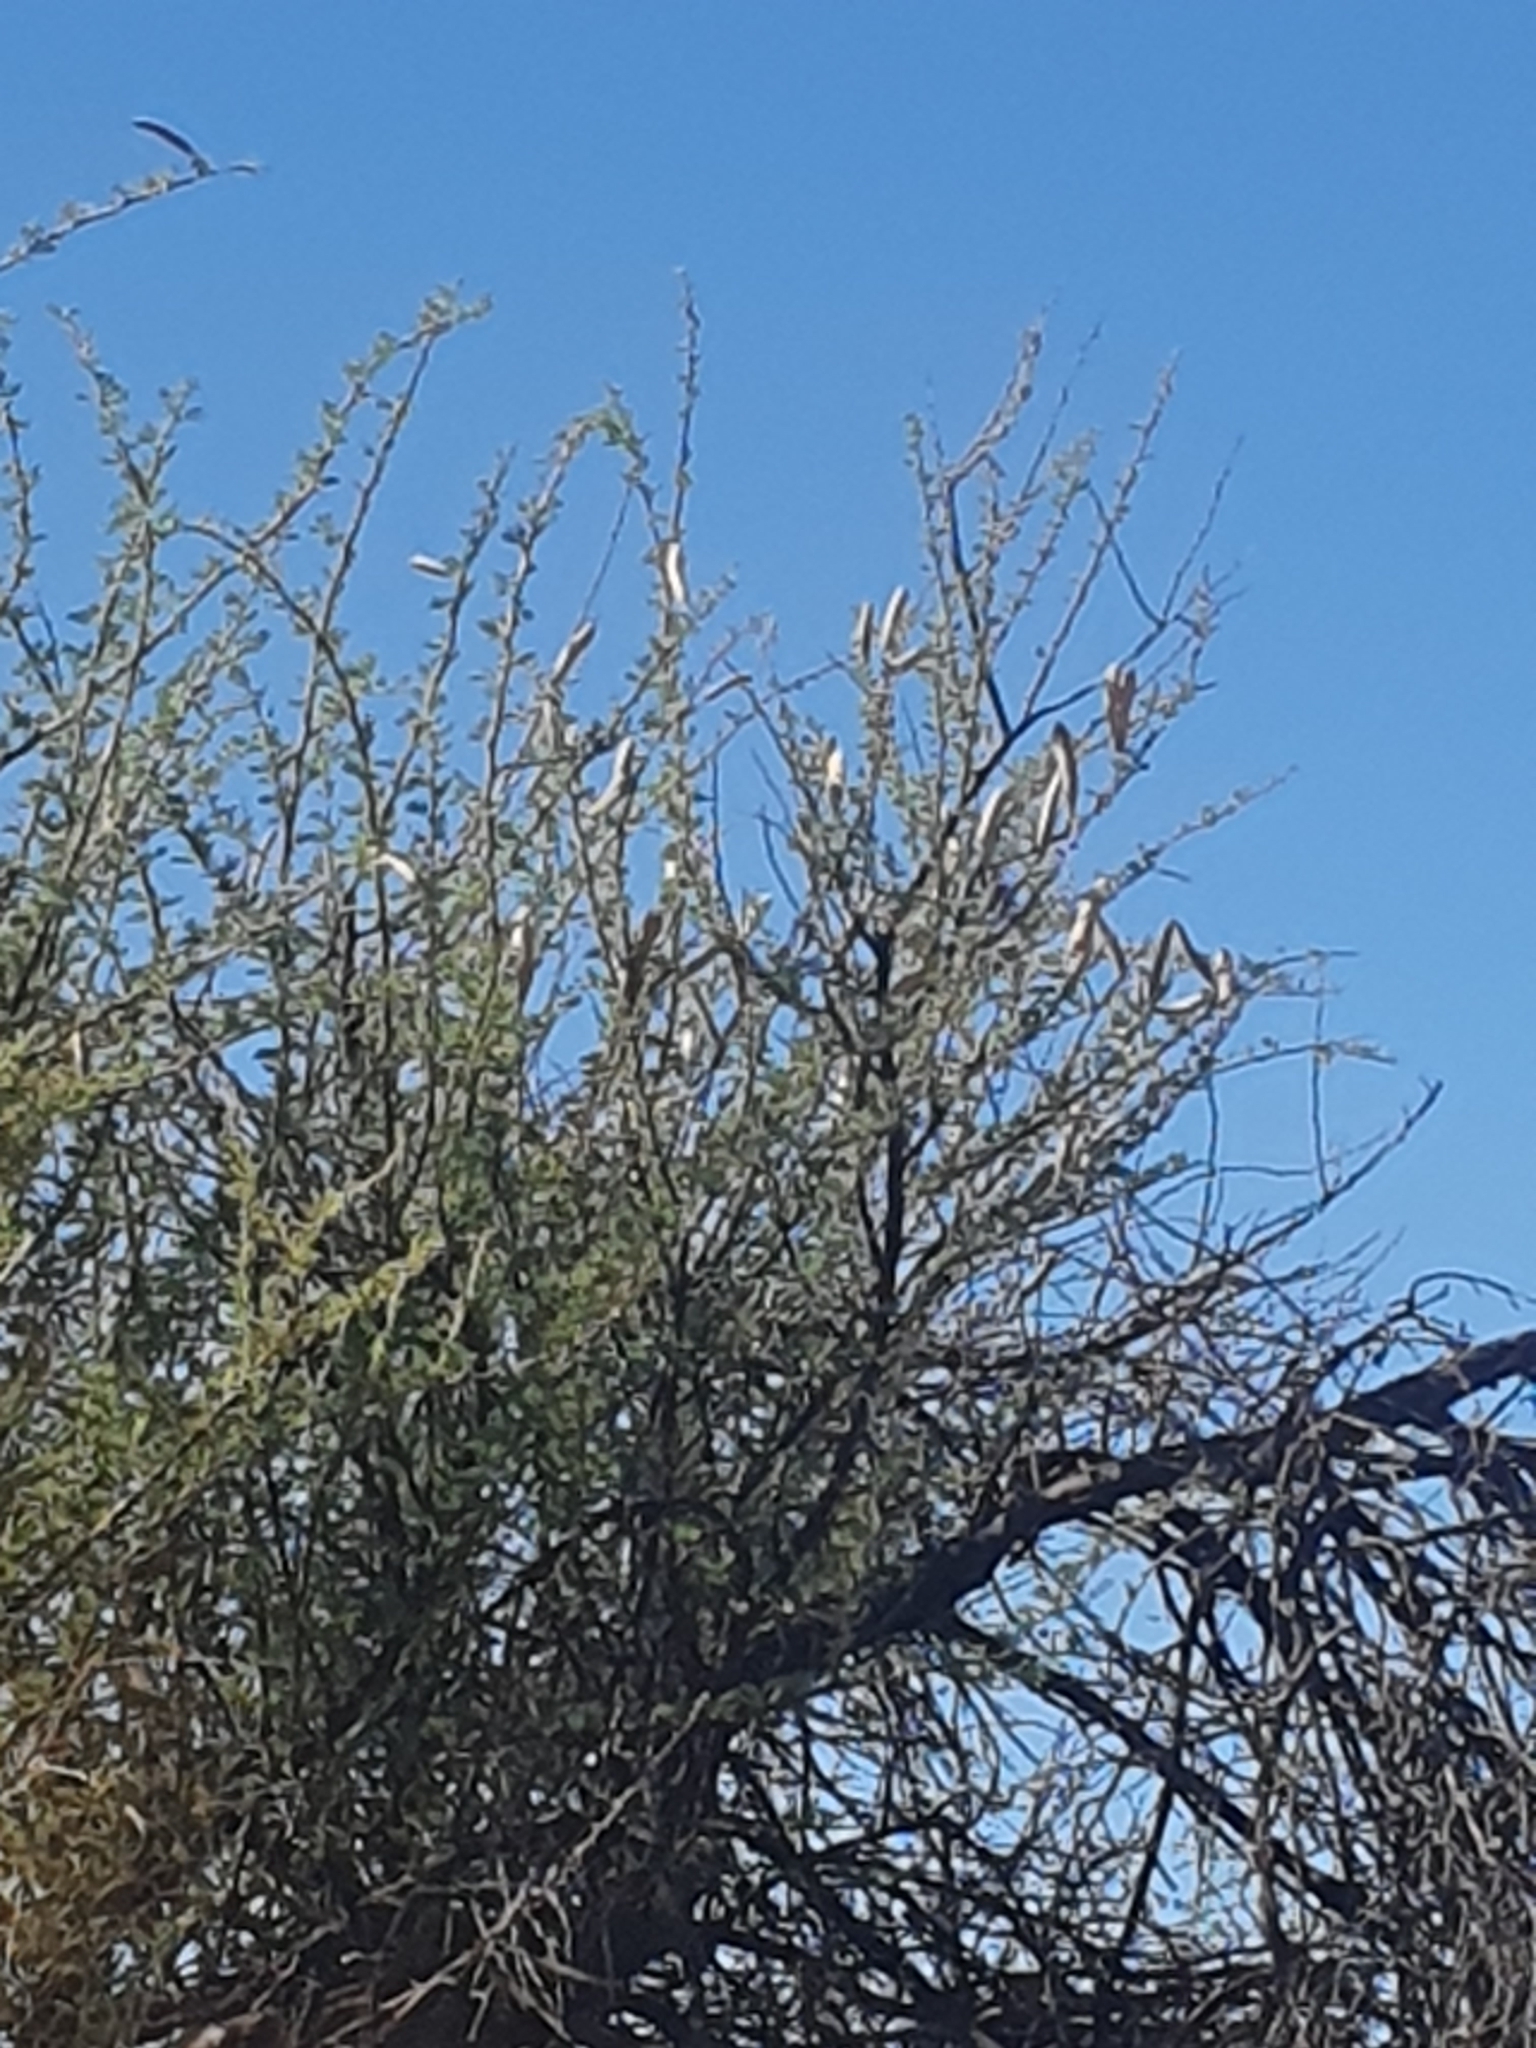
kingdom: Plantae
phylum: Tracheophyta
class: Magnoliopsida
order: Fabales
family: Fabaceae
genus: Vachellia
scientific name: Vachellia hebeclada
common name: Candle thorn
